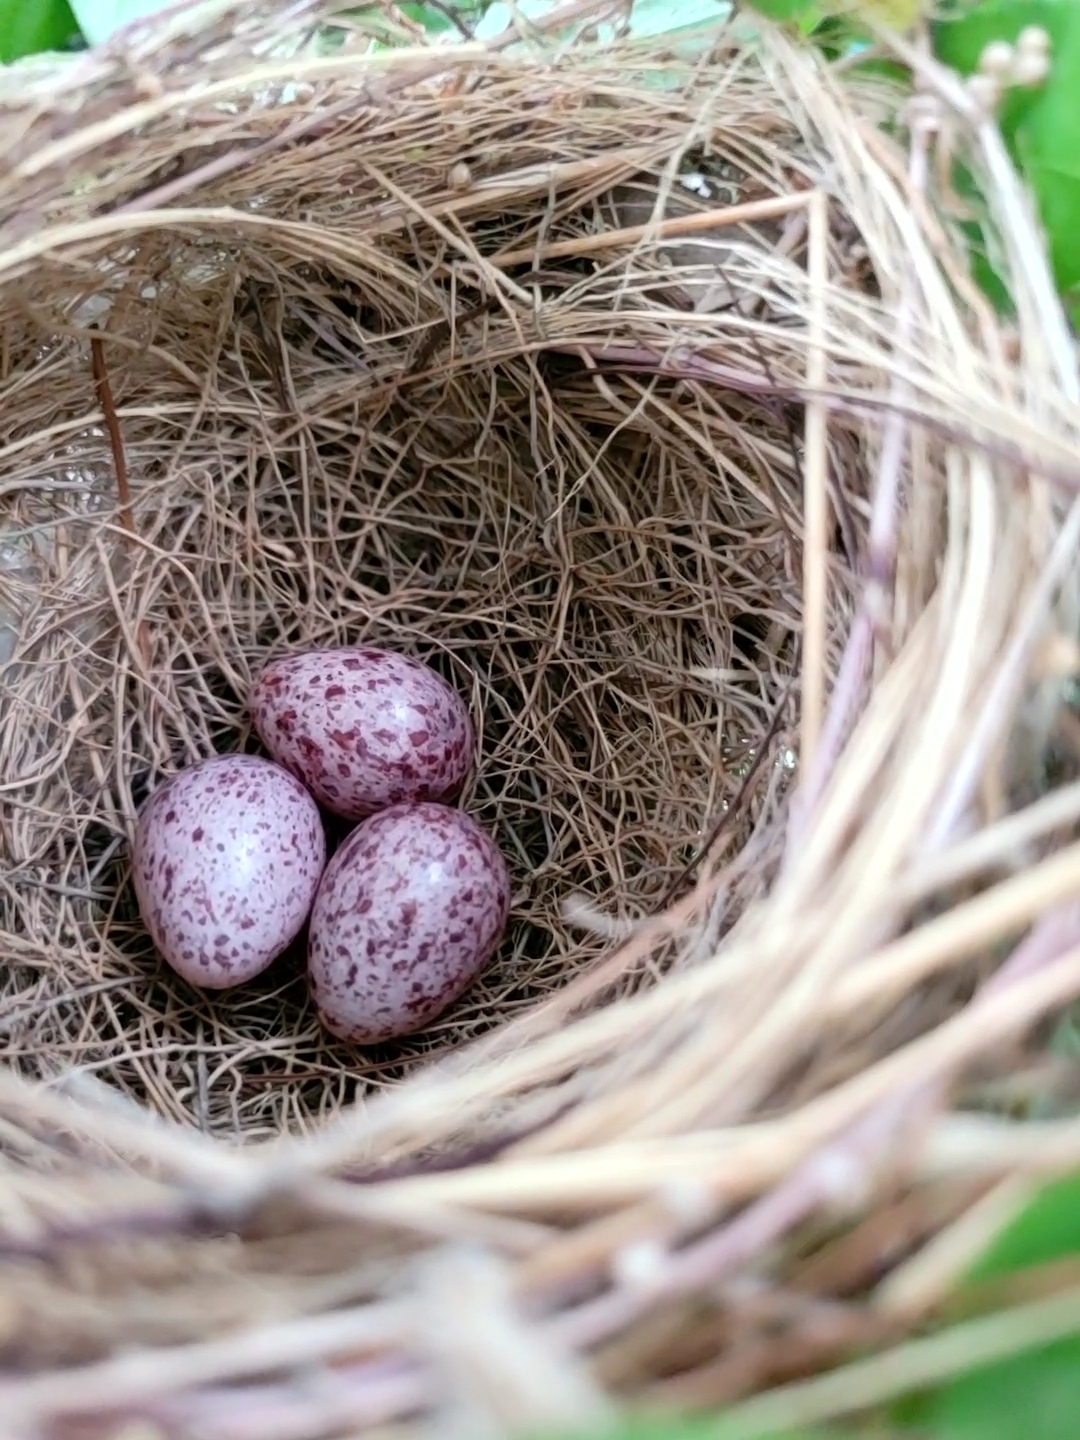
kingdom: Animalia
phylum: Chordata
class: Aves
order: Passeriformes
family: Pycnonotidae
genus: Pycnonotus
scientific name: Pycnonotus sinensis
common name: Light-vented bulbul
